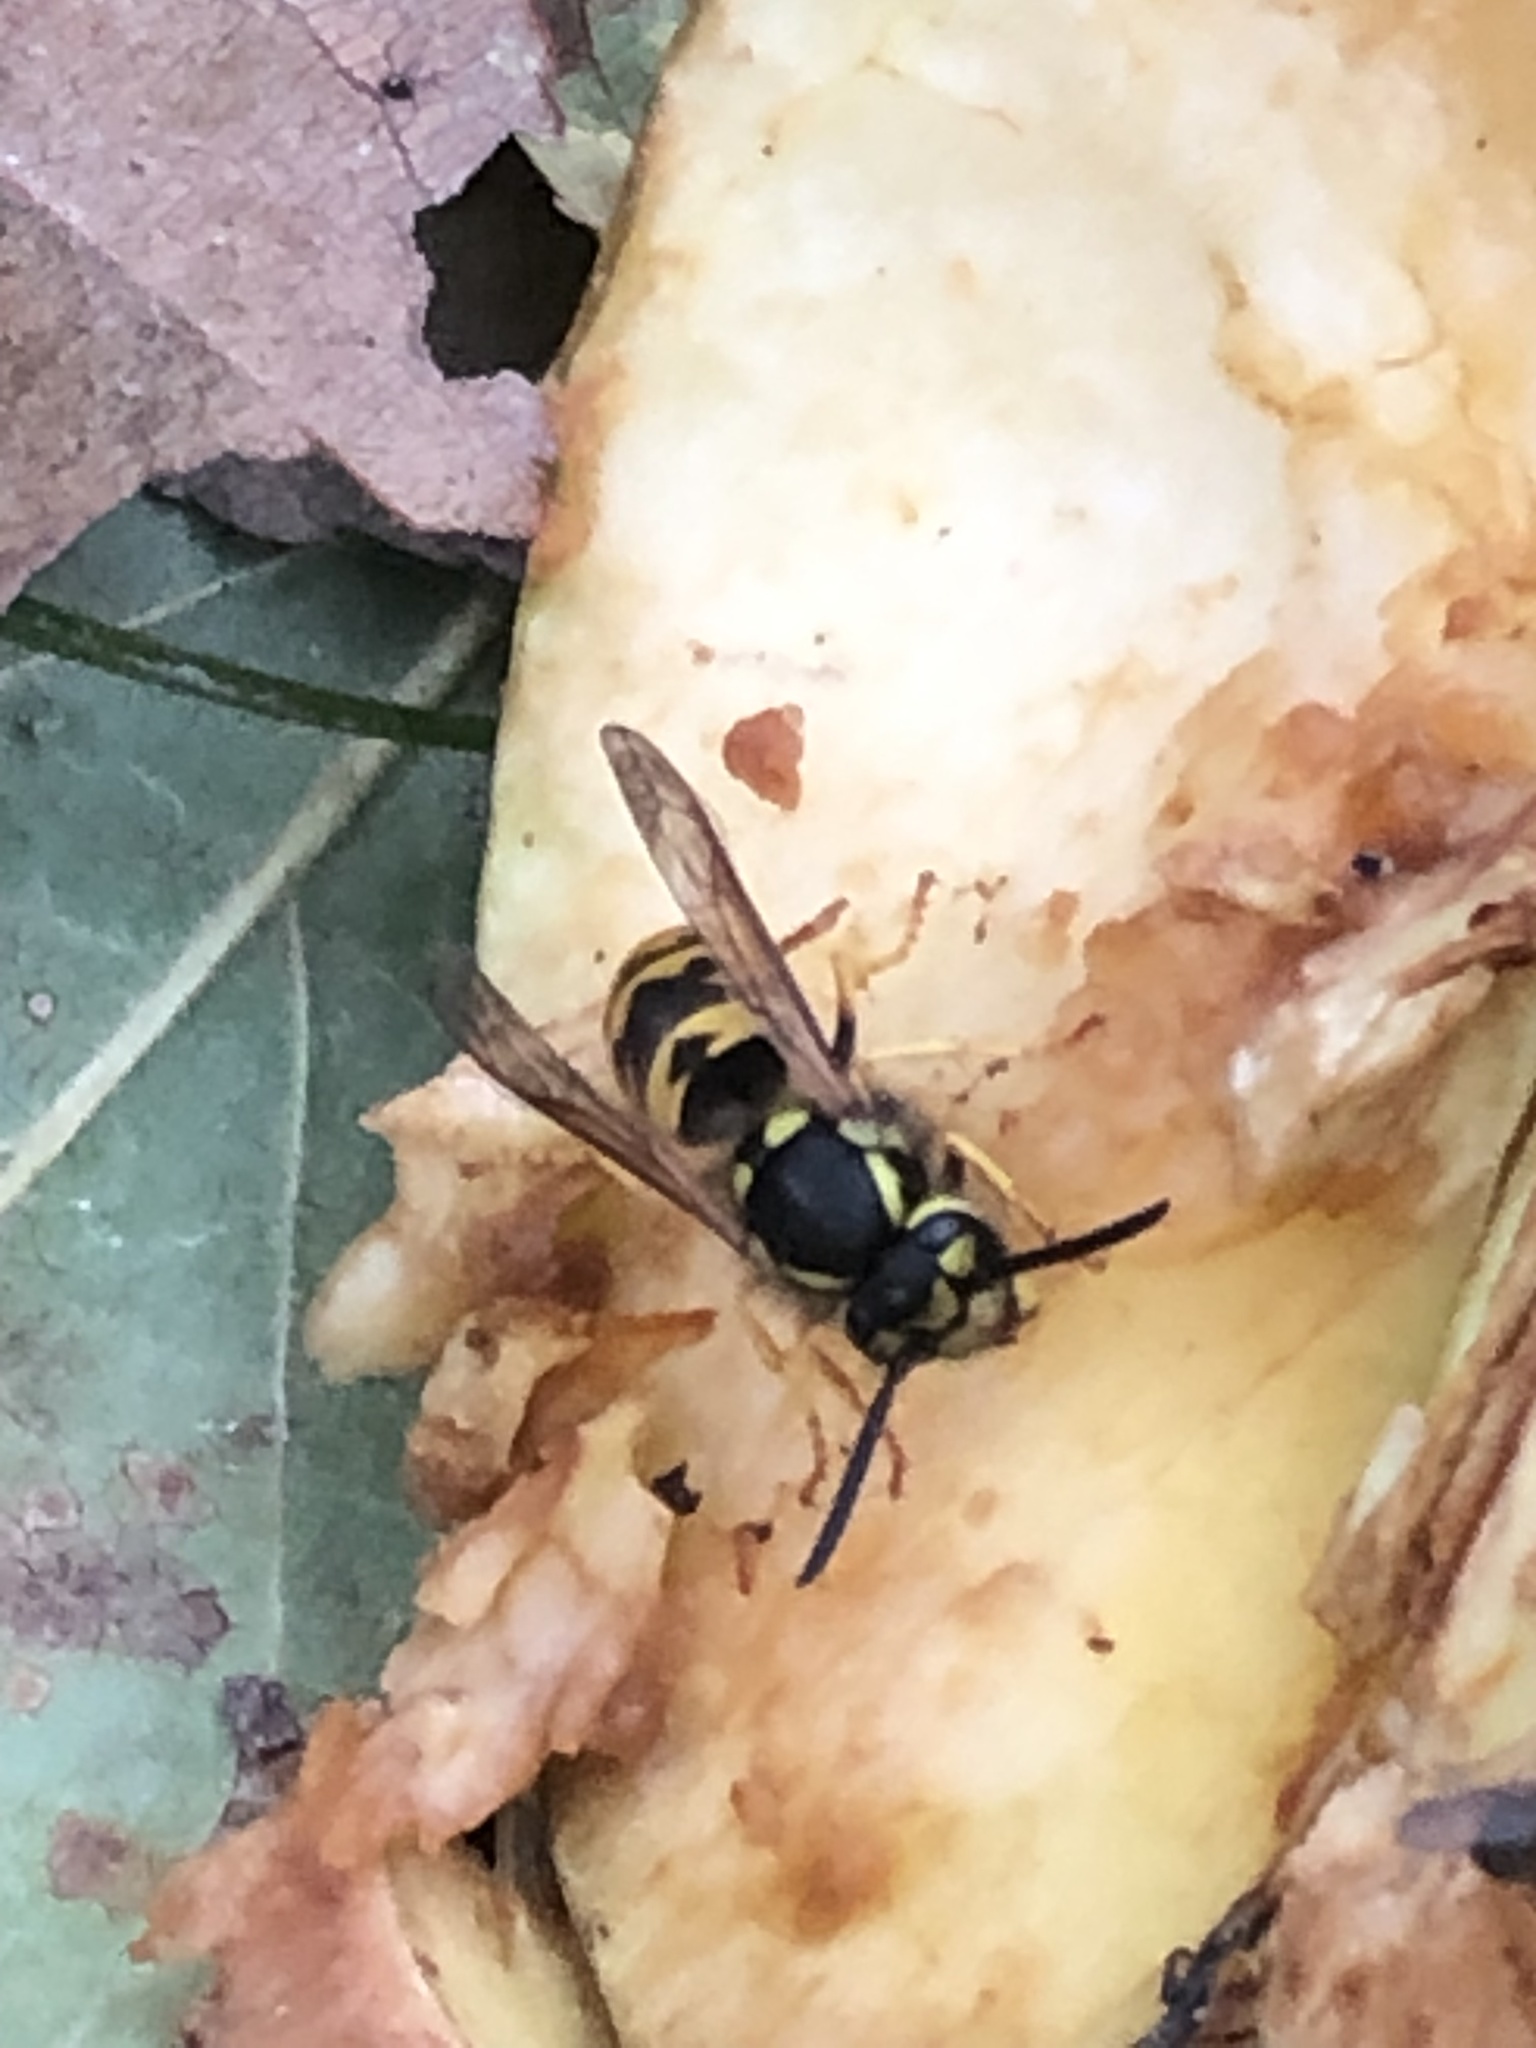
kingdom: Animalia
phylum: Arthropoda
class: Insecta
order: Hymenoptera
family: Vespidae
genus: Vespula
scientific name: Vespula germanica
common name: German wasp
